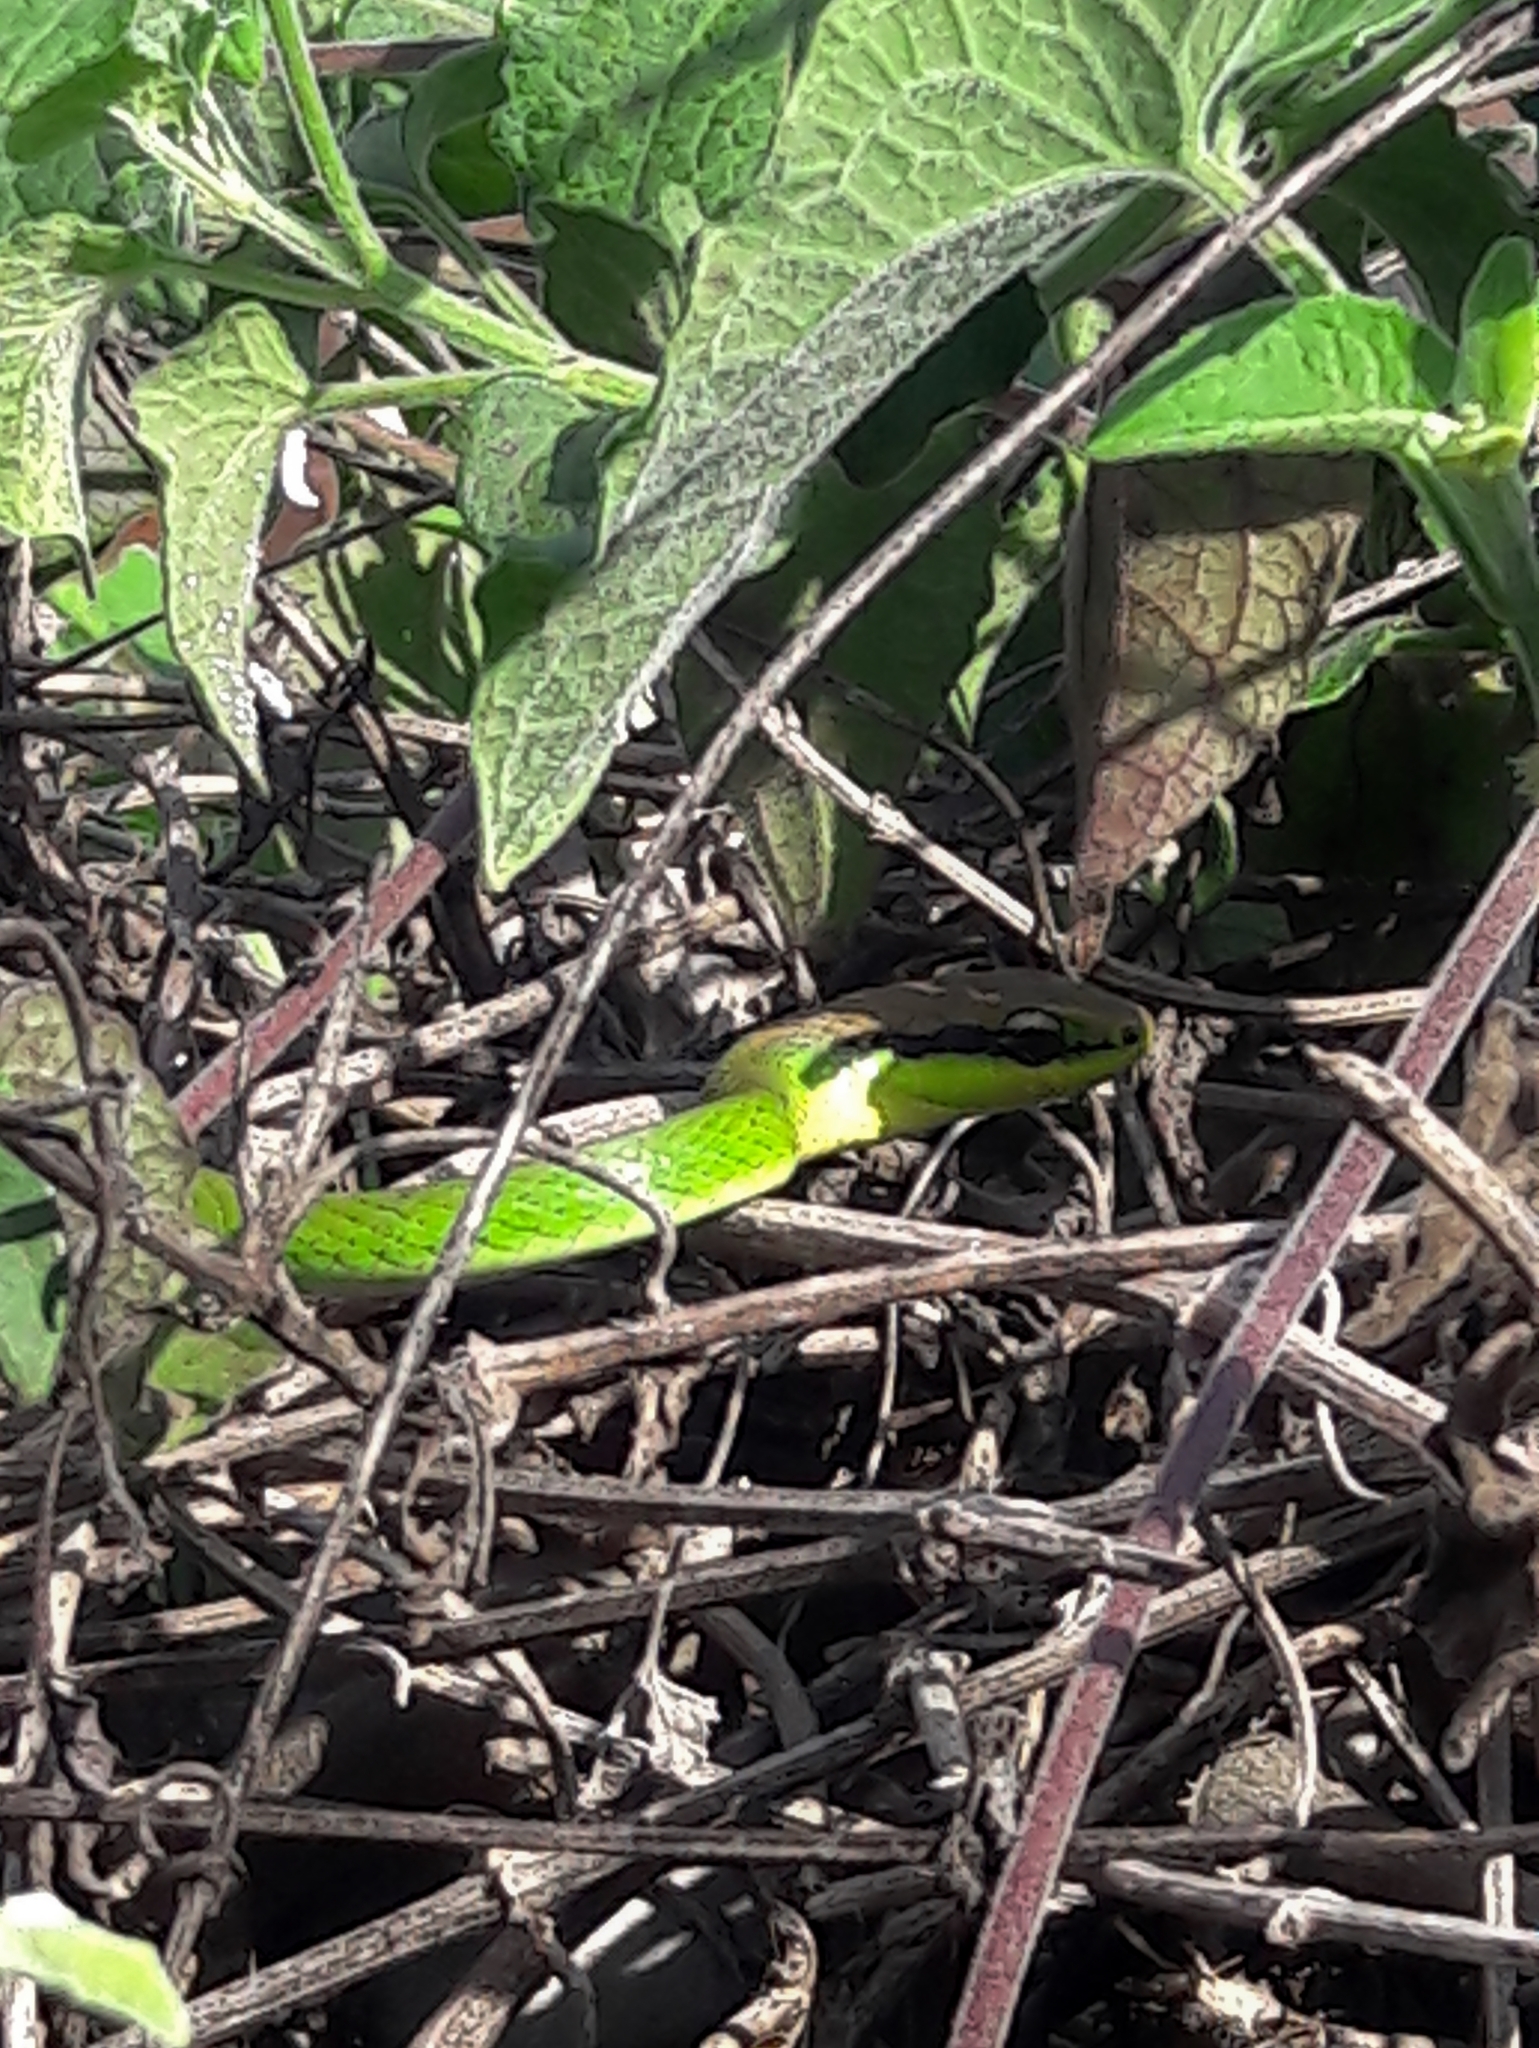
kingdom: Animalia
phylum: Chordata
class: Squamata
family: Colubridae
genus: Philodryas
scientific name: Philodryas olfersii
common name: Lichtenstein's green racer
